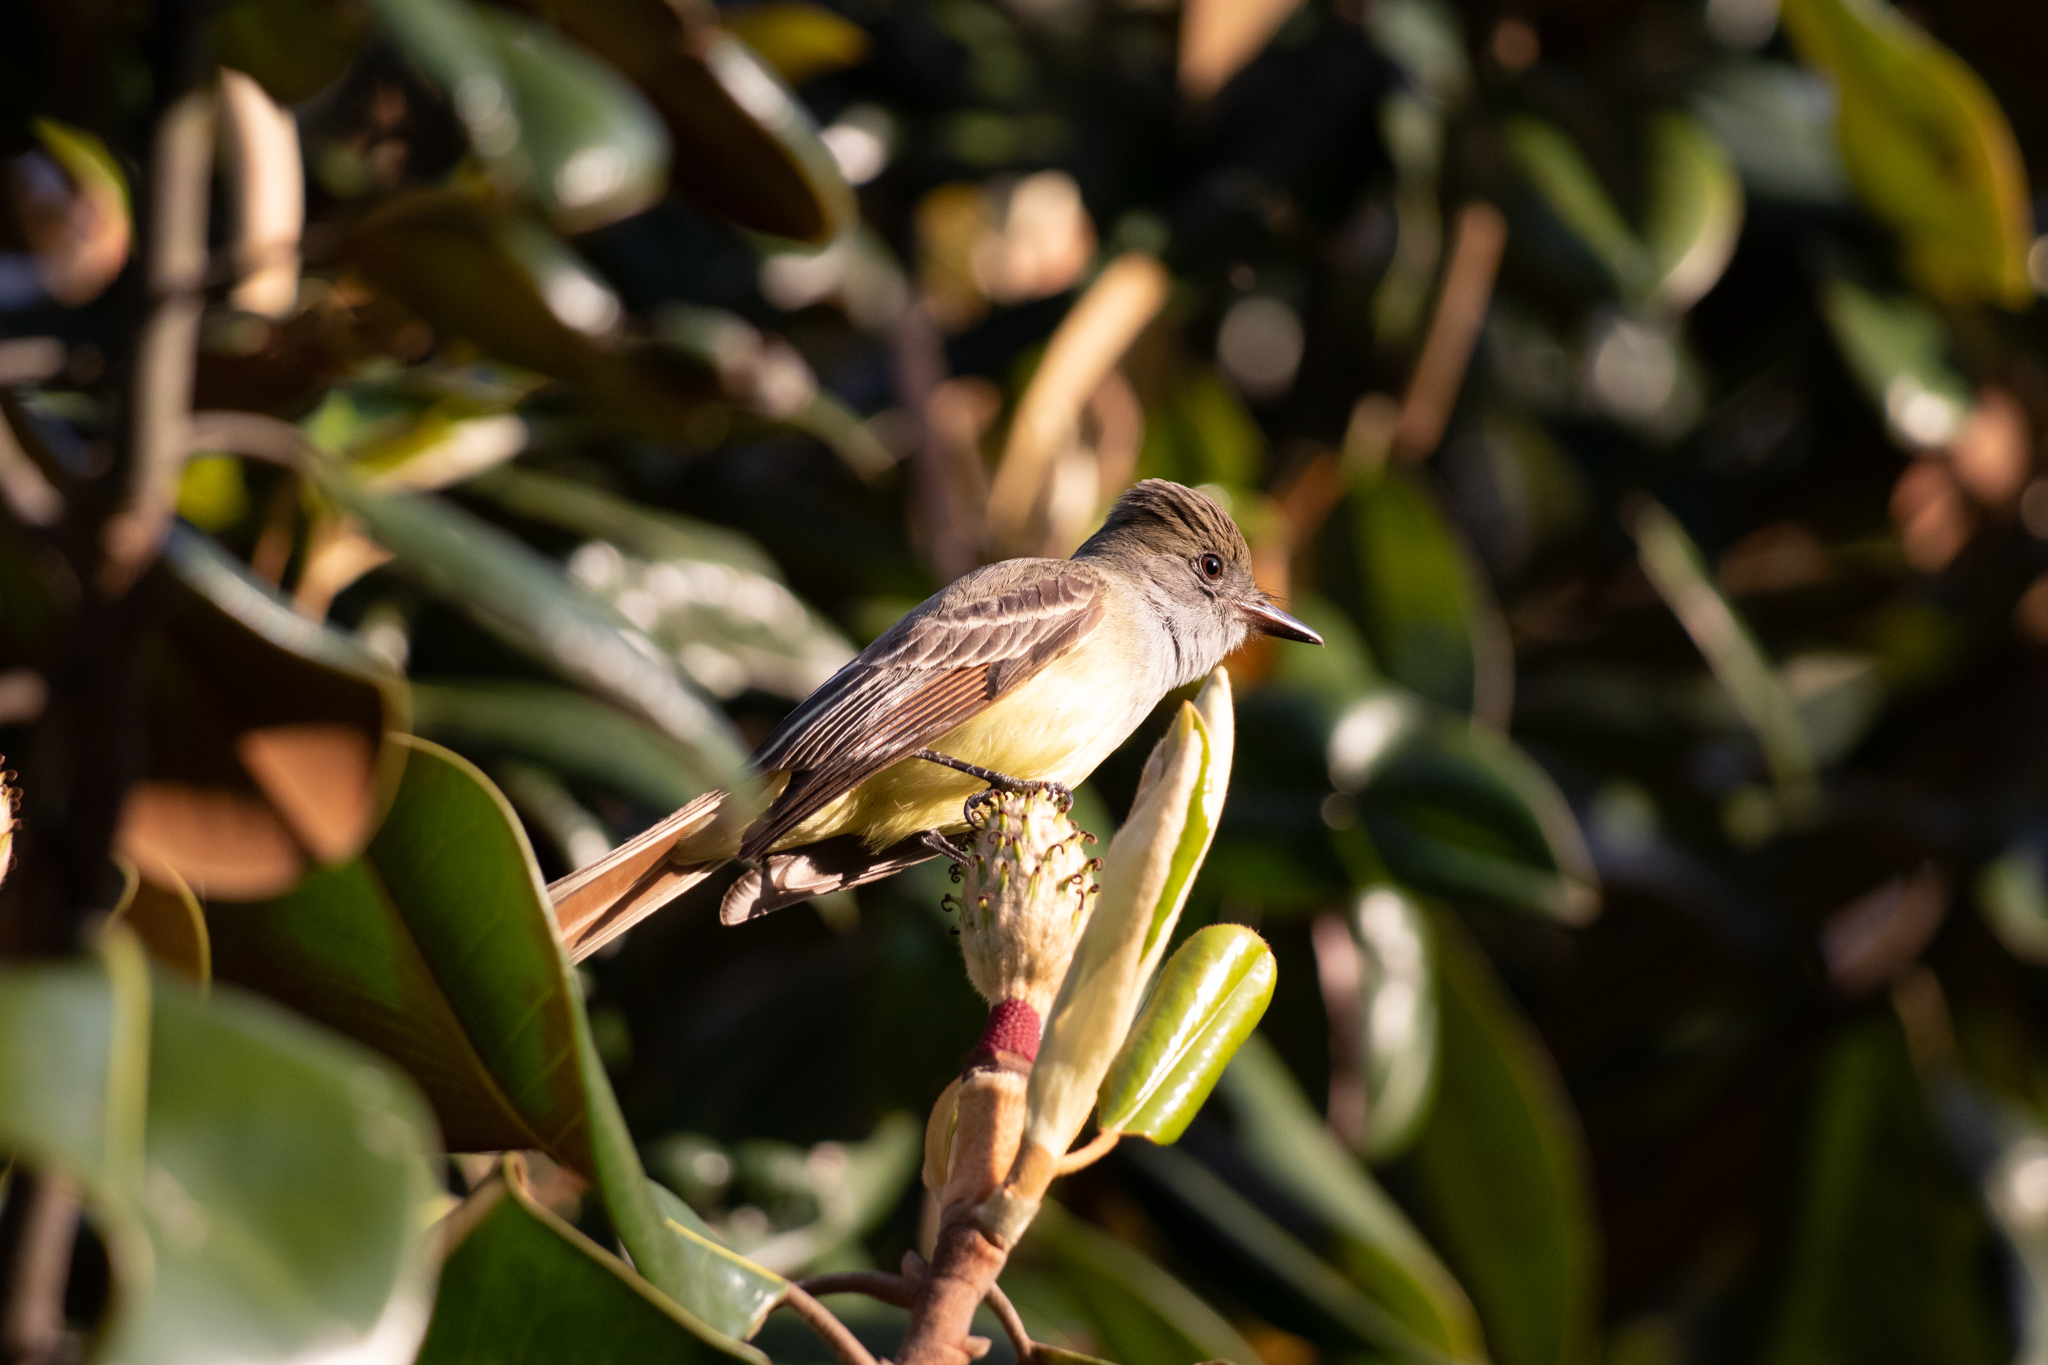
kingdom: Animalia
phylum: Chordata
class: Aves
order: Passeriformes
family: Tyrannidae
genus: Myiarchus
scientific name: Myiarchus crinitus
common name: Great crested flycatcher
